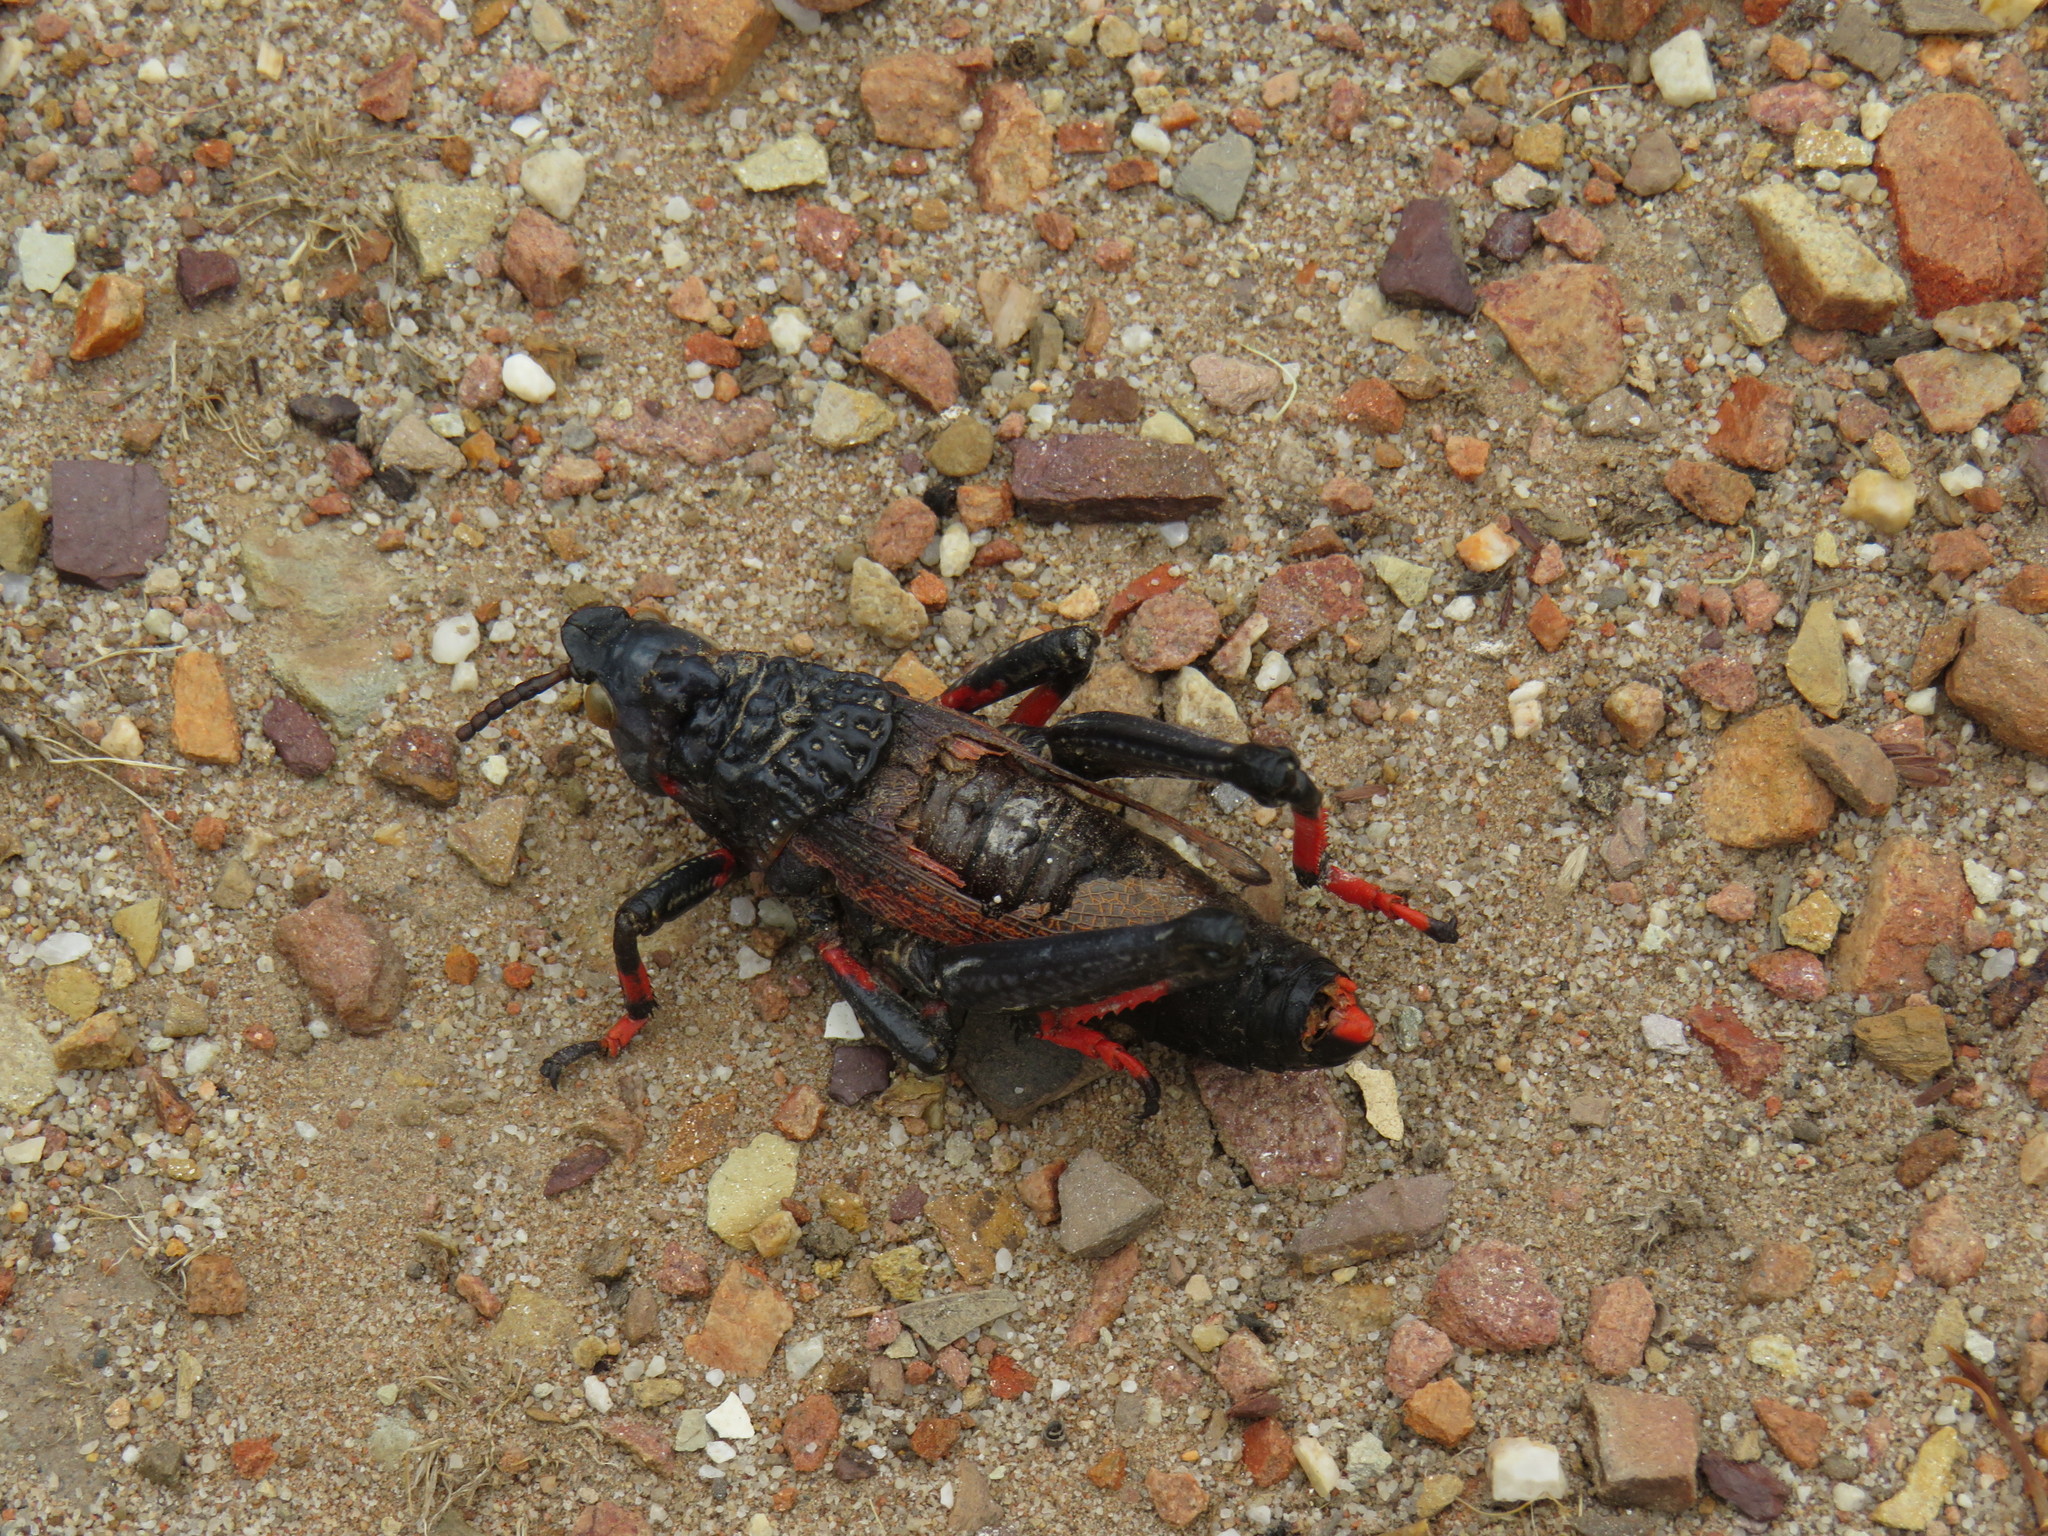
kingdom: Animalia
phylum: Arthropoda
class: Insecta
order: Orthoptera
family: Pyrgomorphidae
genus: Dictyophorus
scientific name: Dictyophorus spumans
